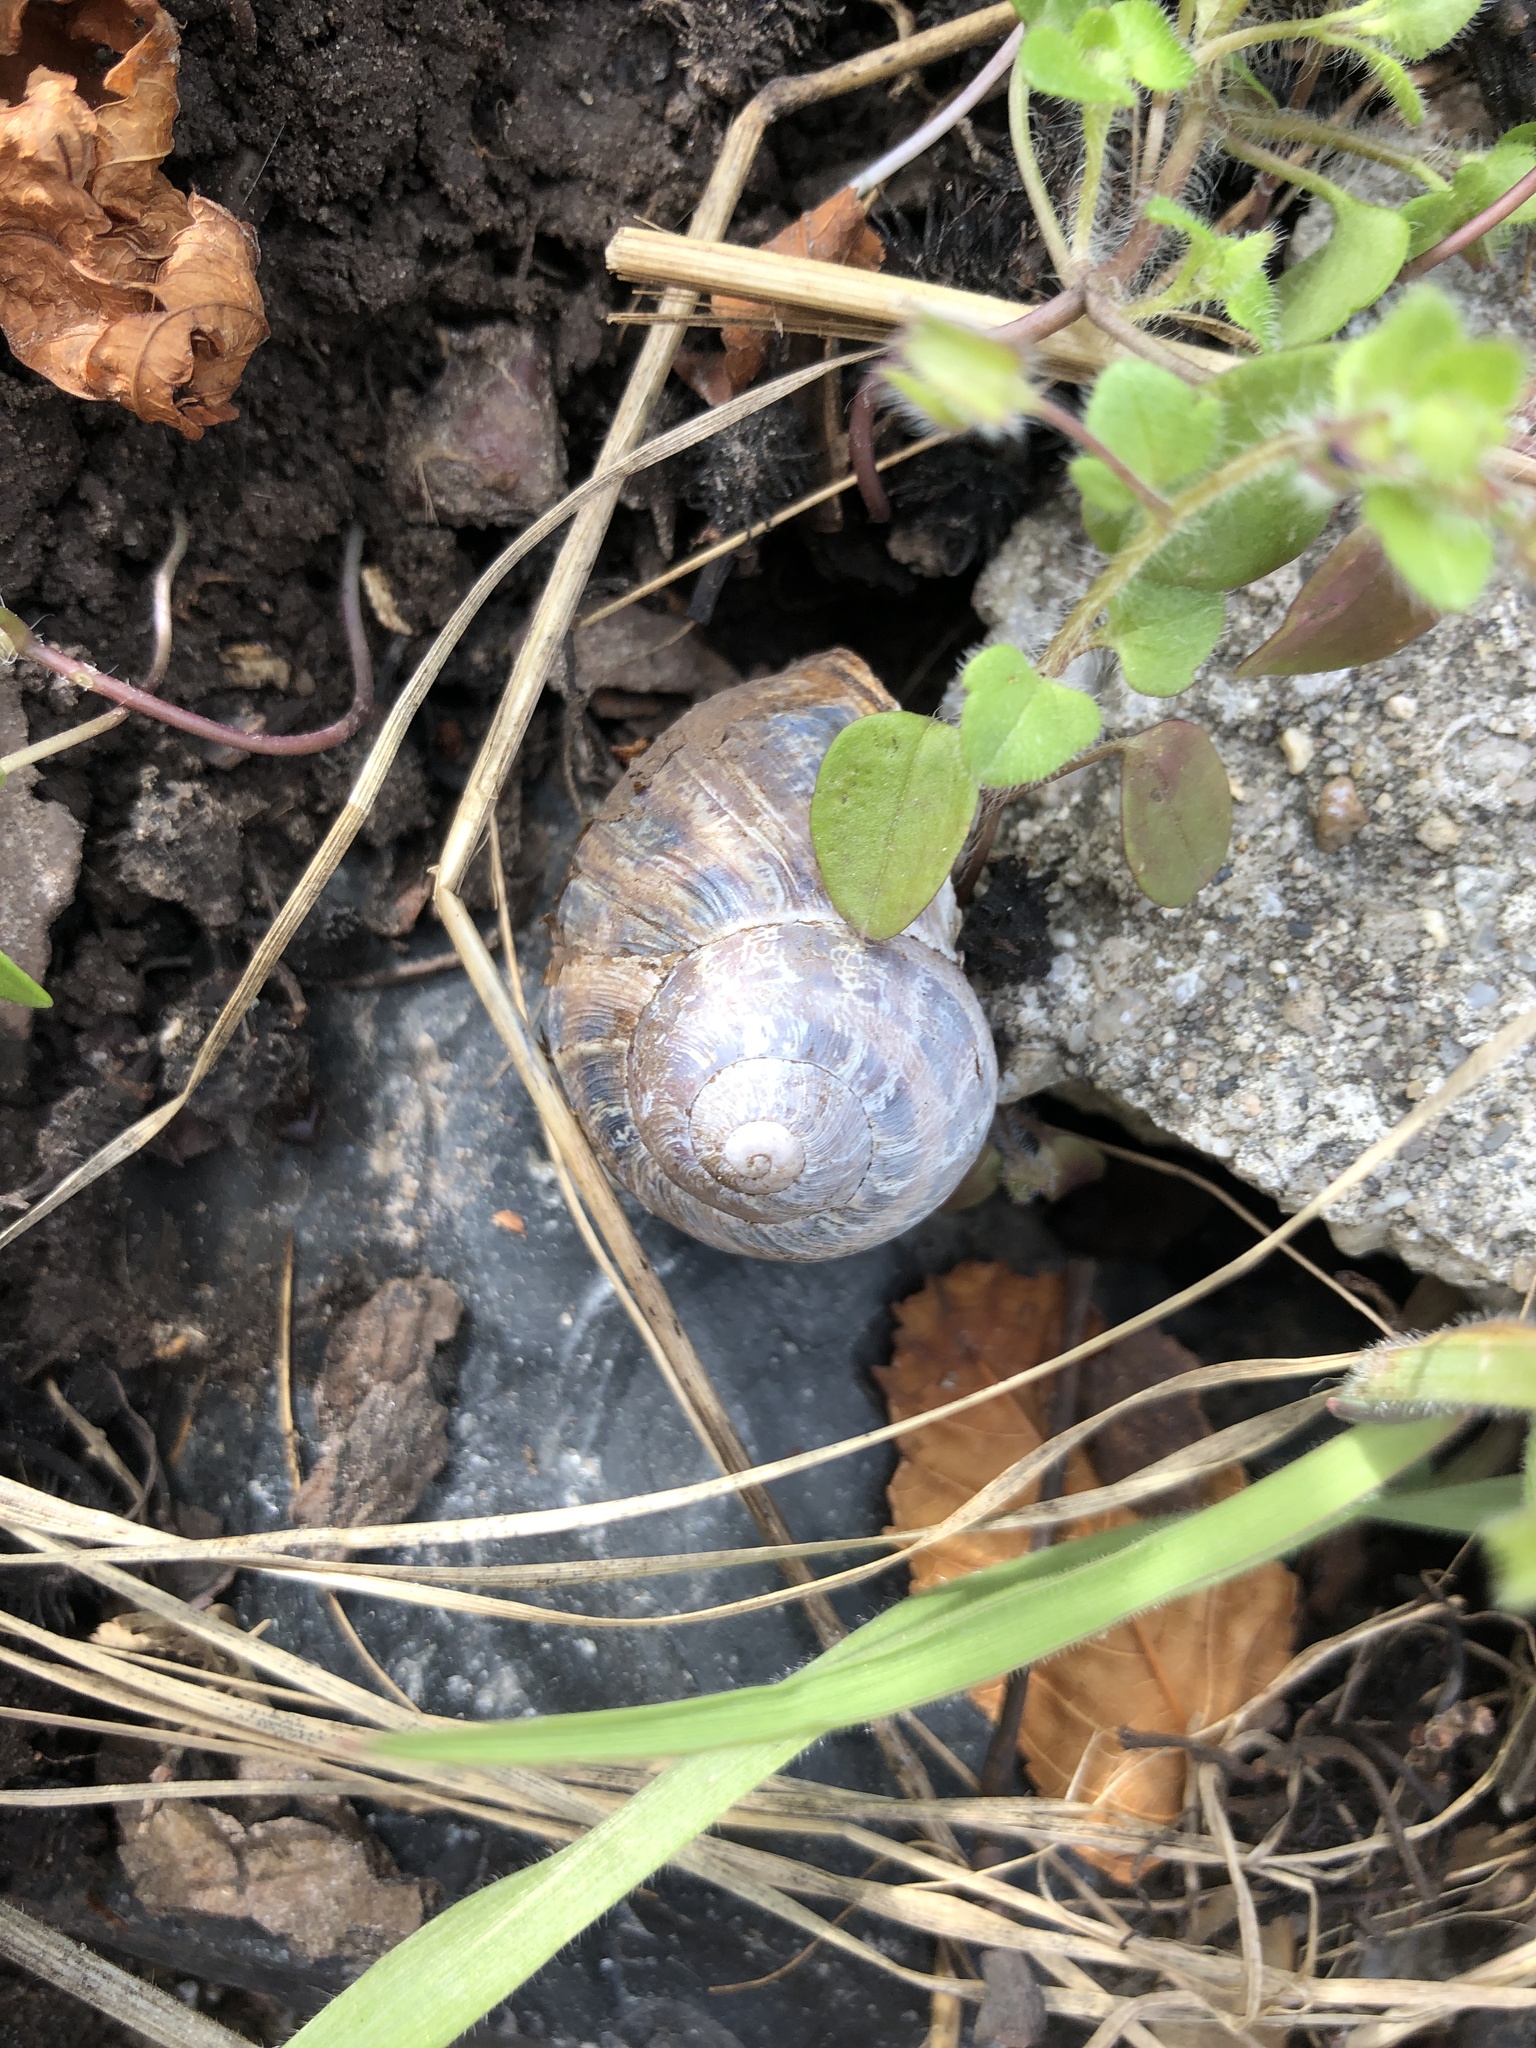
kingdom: Animalia
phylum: Mollusca
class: Gastropoda
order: Stylommatophora
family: Helicidae
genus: Cornu
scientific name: Cornu aspersum
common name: Brown garden snail
